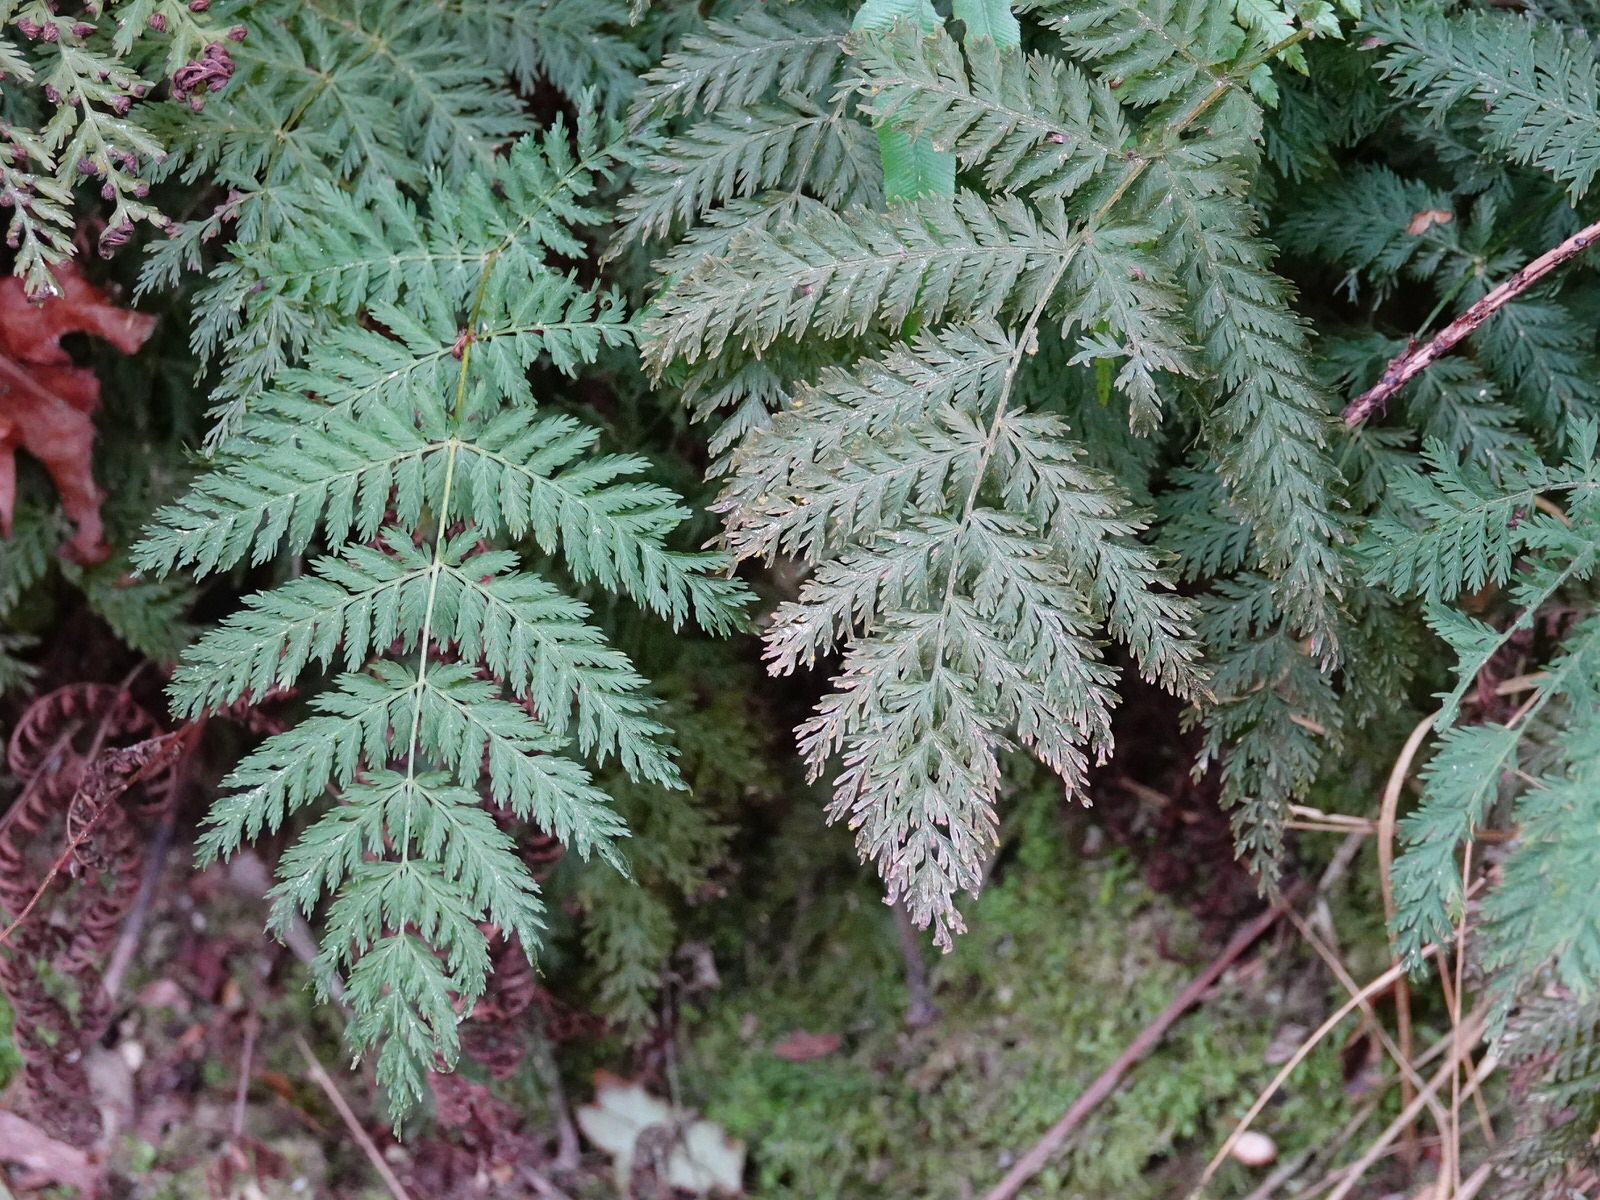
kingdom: Plantae
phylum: Tracheophyta
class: Polypodiopsida
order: Osmundales
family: Osmundaceae
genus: Leptopteris
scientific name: Leptopteris hymenophylloides
